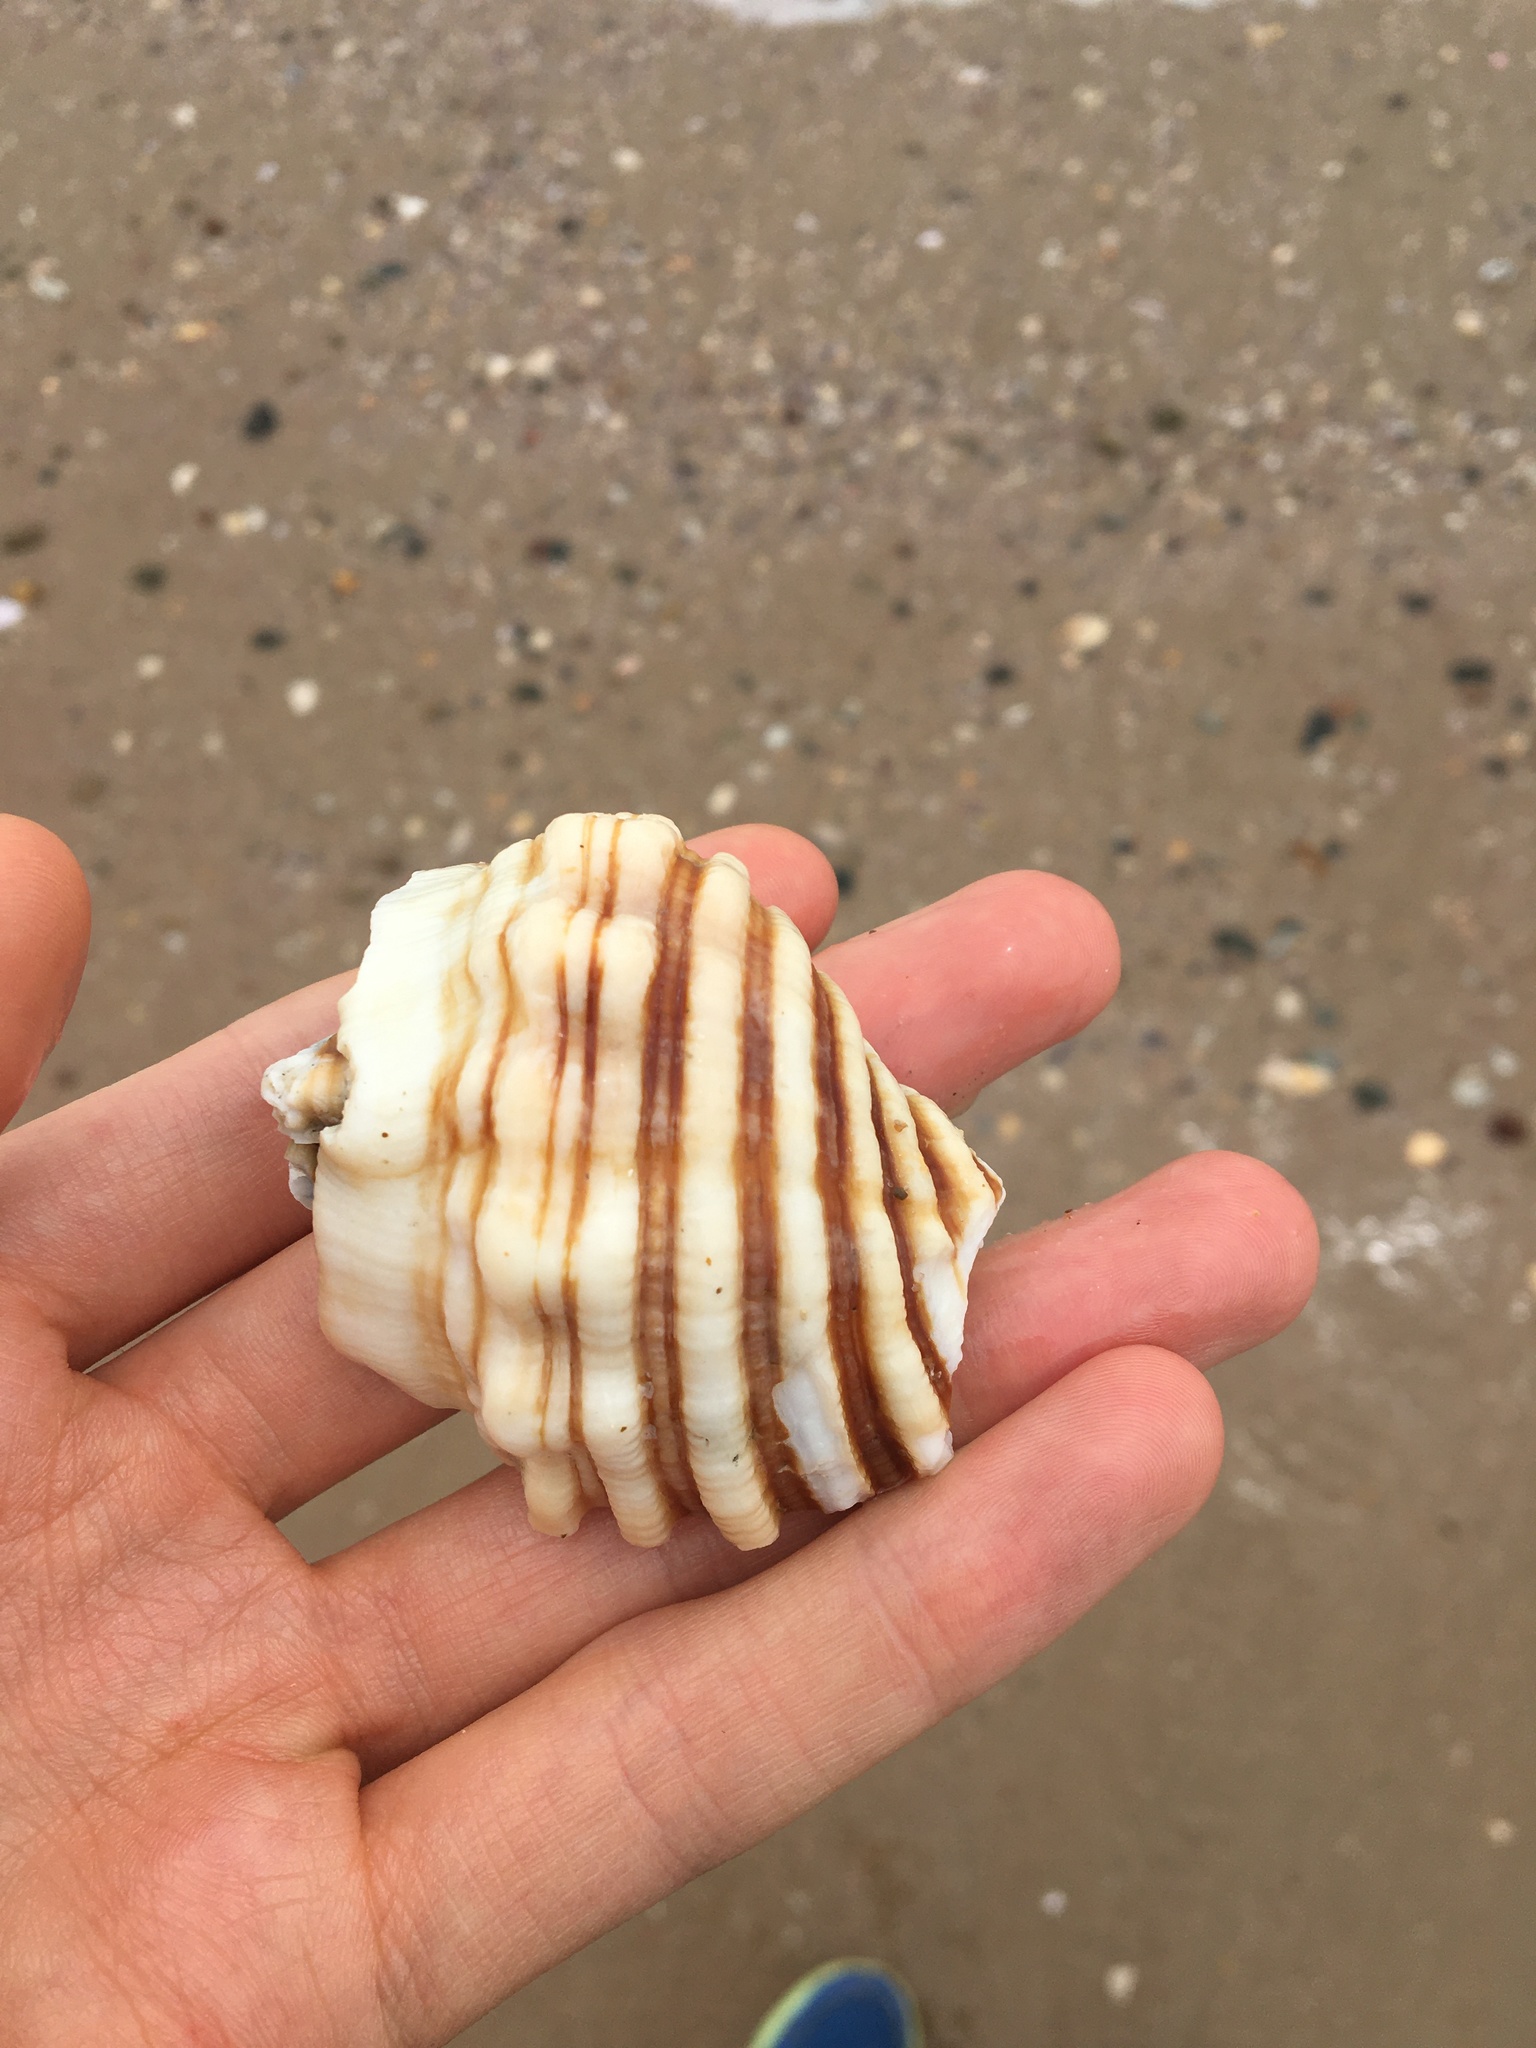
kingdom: Animalia
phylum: Mollusca
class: Gastropoda
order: Littorinimorpha
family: Cymatiidae
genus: Cabestana
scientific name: Cabestana spengleri
